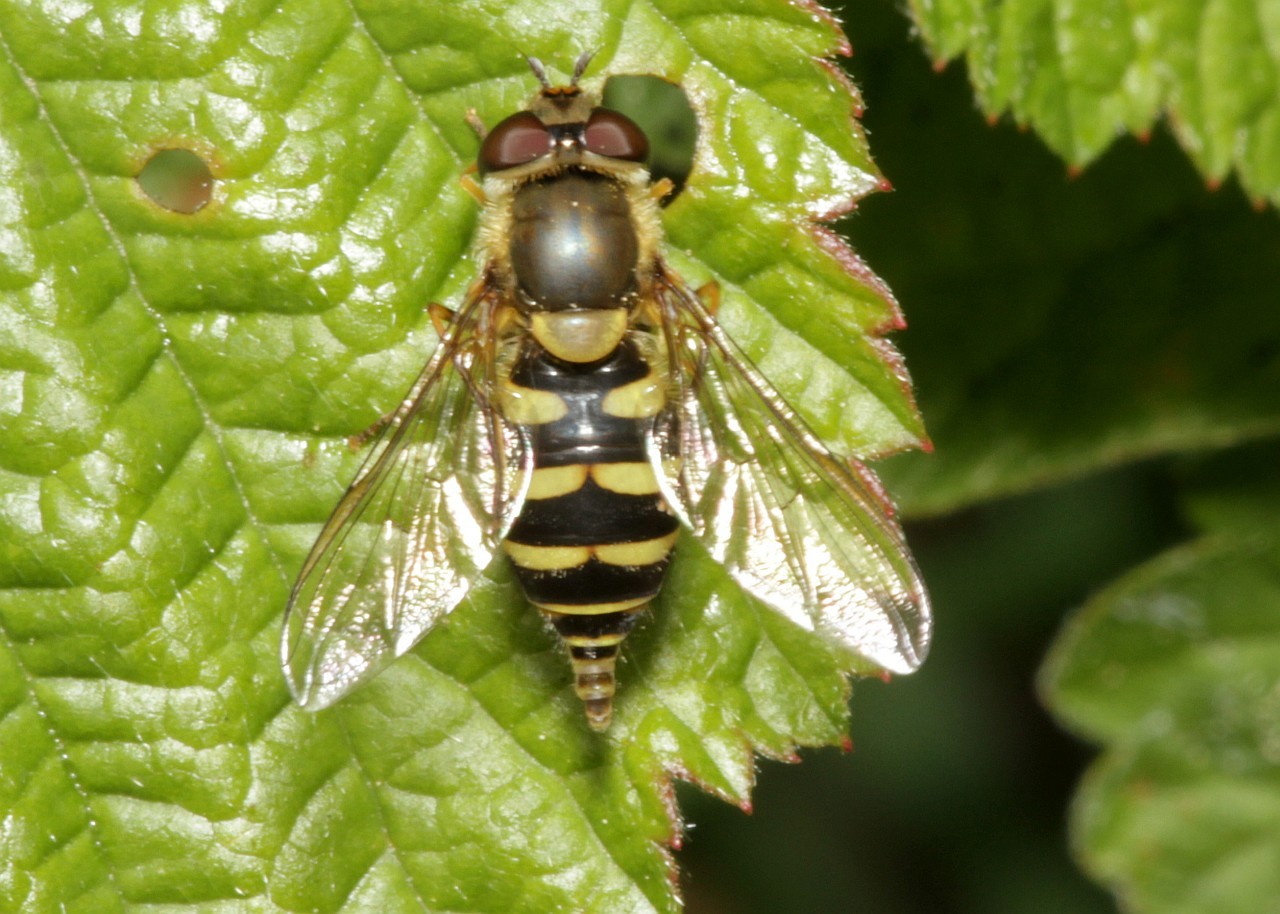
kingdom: Animalia
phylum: Arthropoda
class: Insecta
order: Diptera
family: Syrphidae
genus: Syrphus
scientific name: Syrphus
